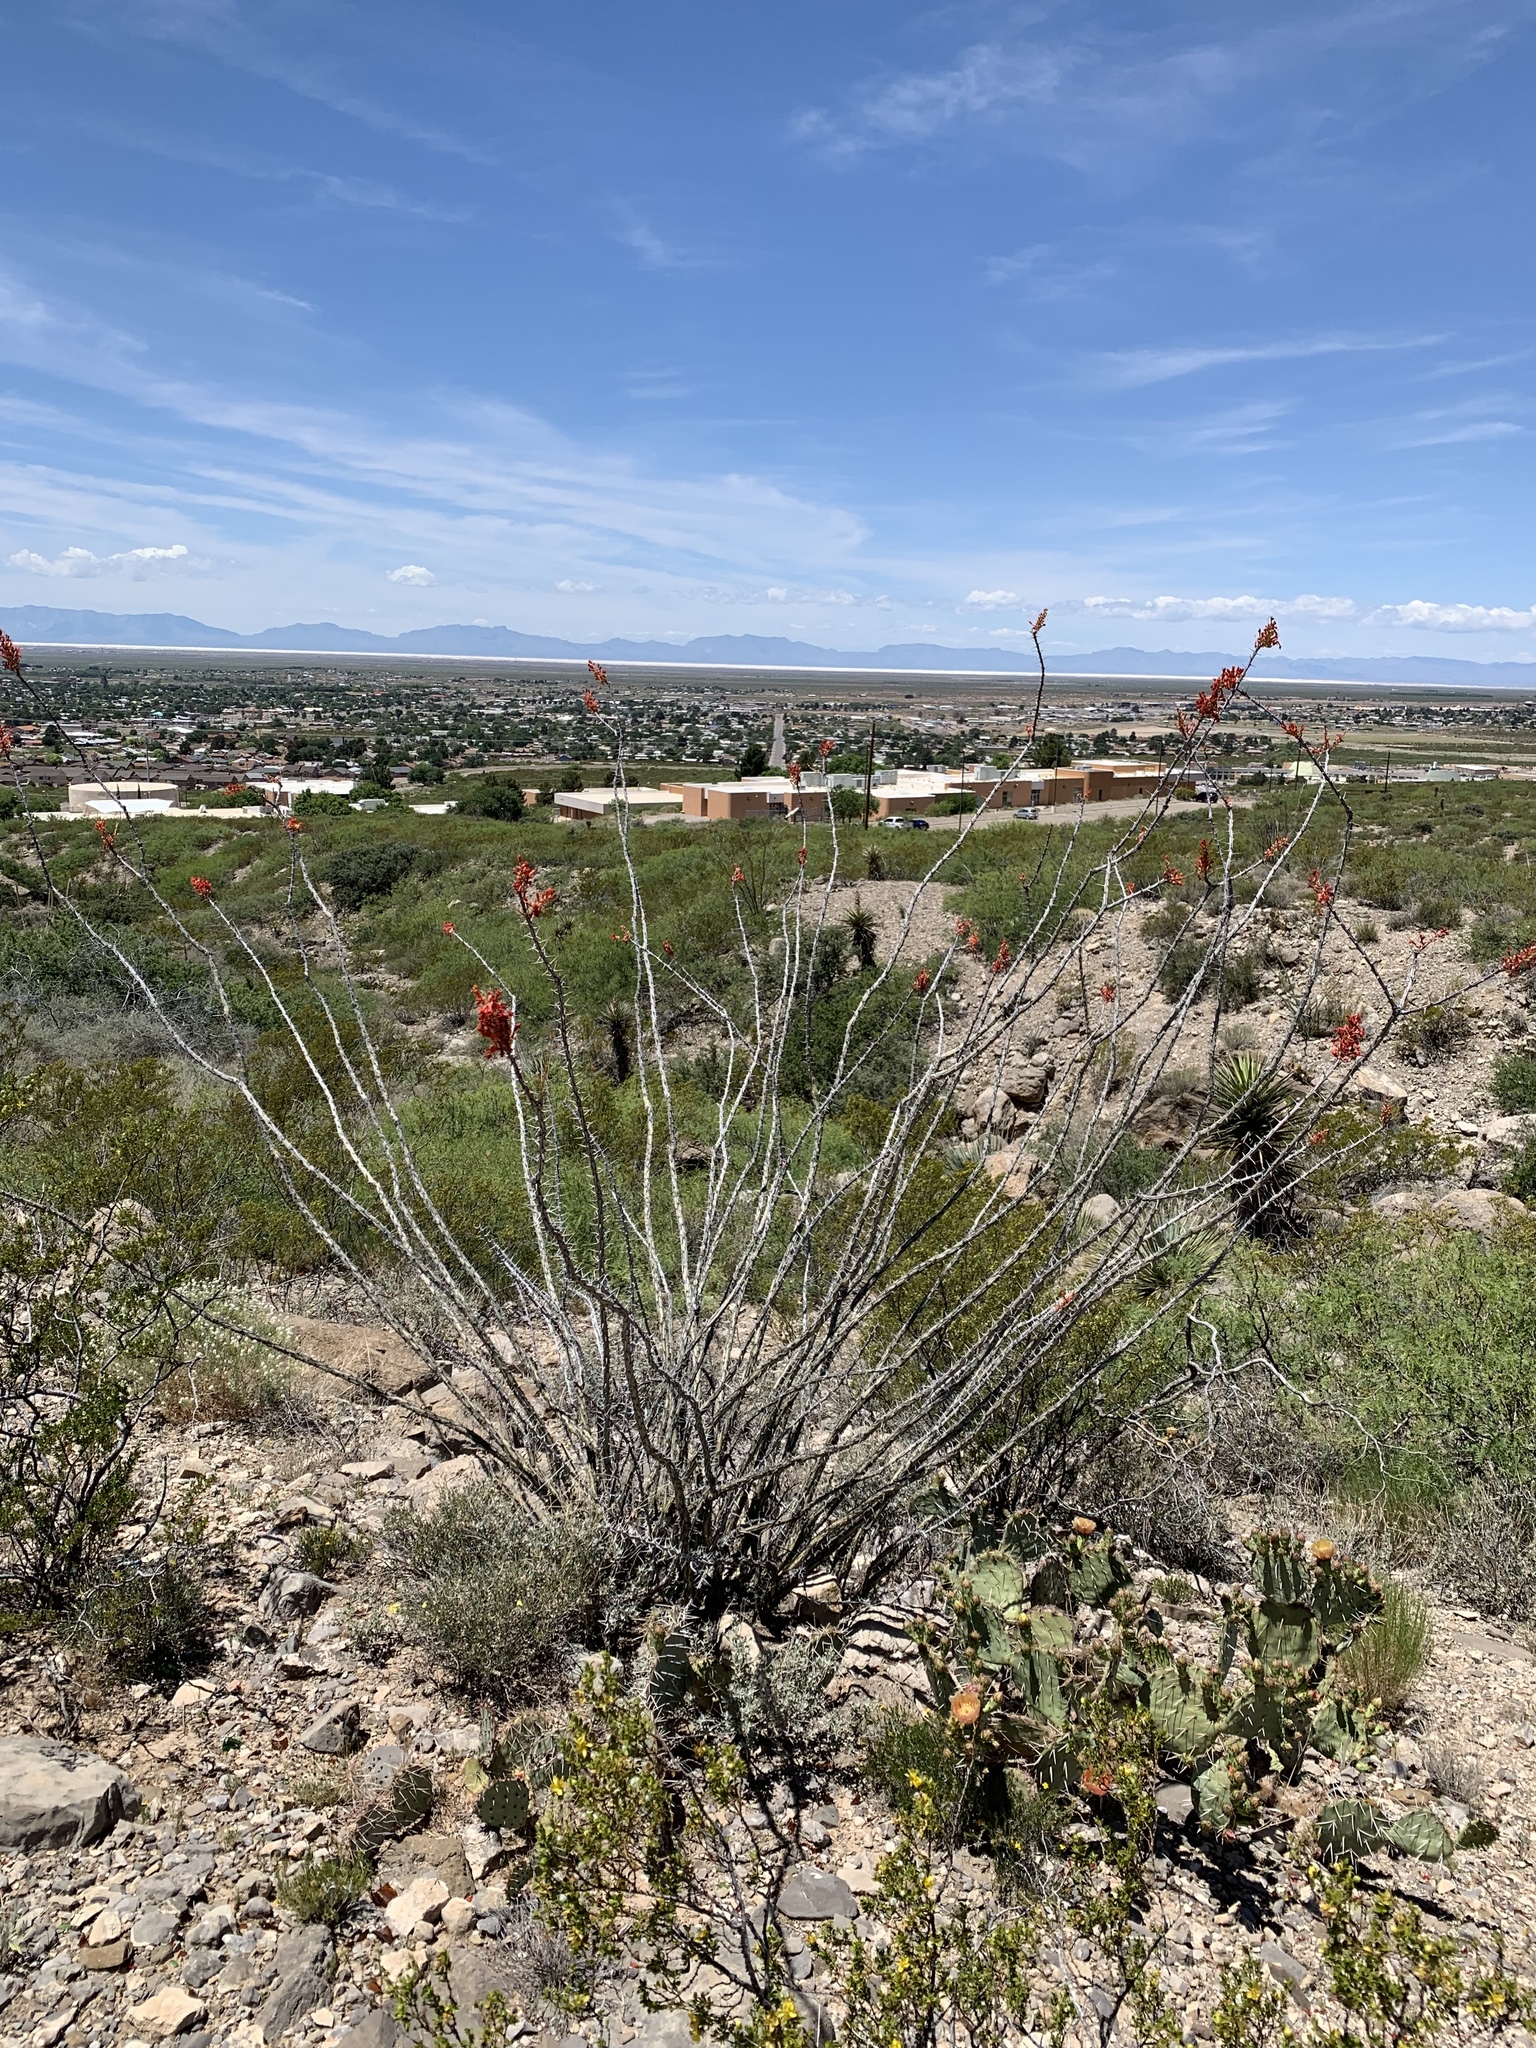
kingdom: Plantae
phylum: Tracheophyta
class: Magnoliopsida
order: Ericales
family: Fouquieriaceae
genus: Fouquieria
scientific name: Fouquieria splendens
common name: Vine-cactus
